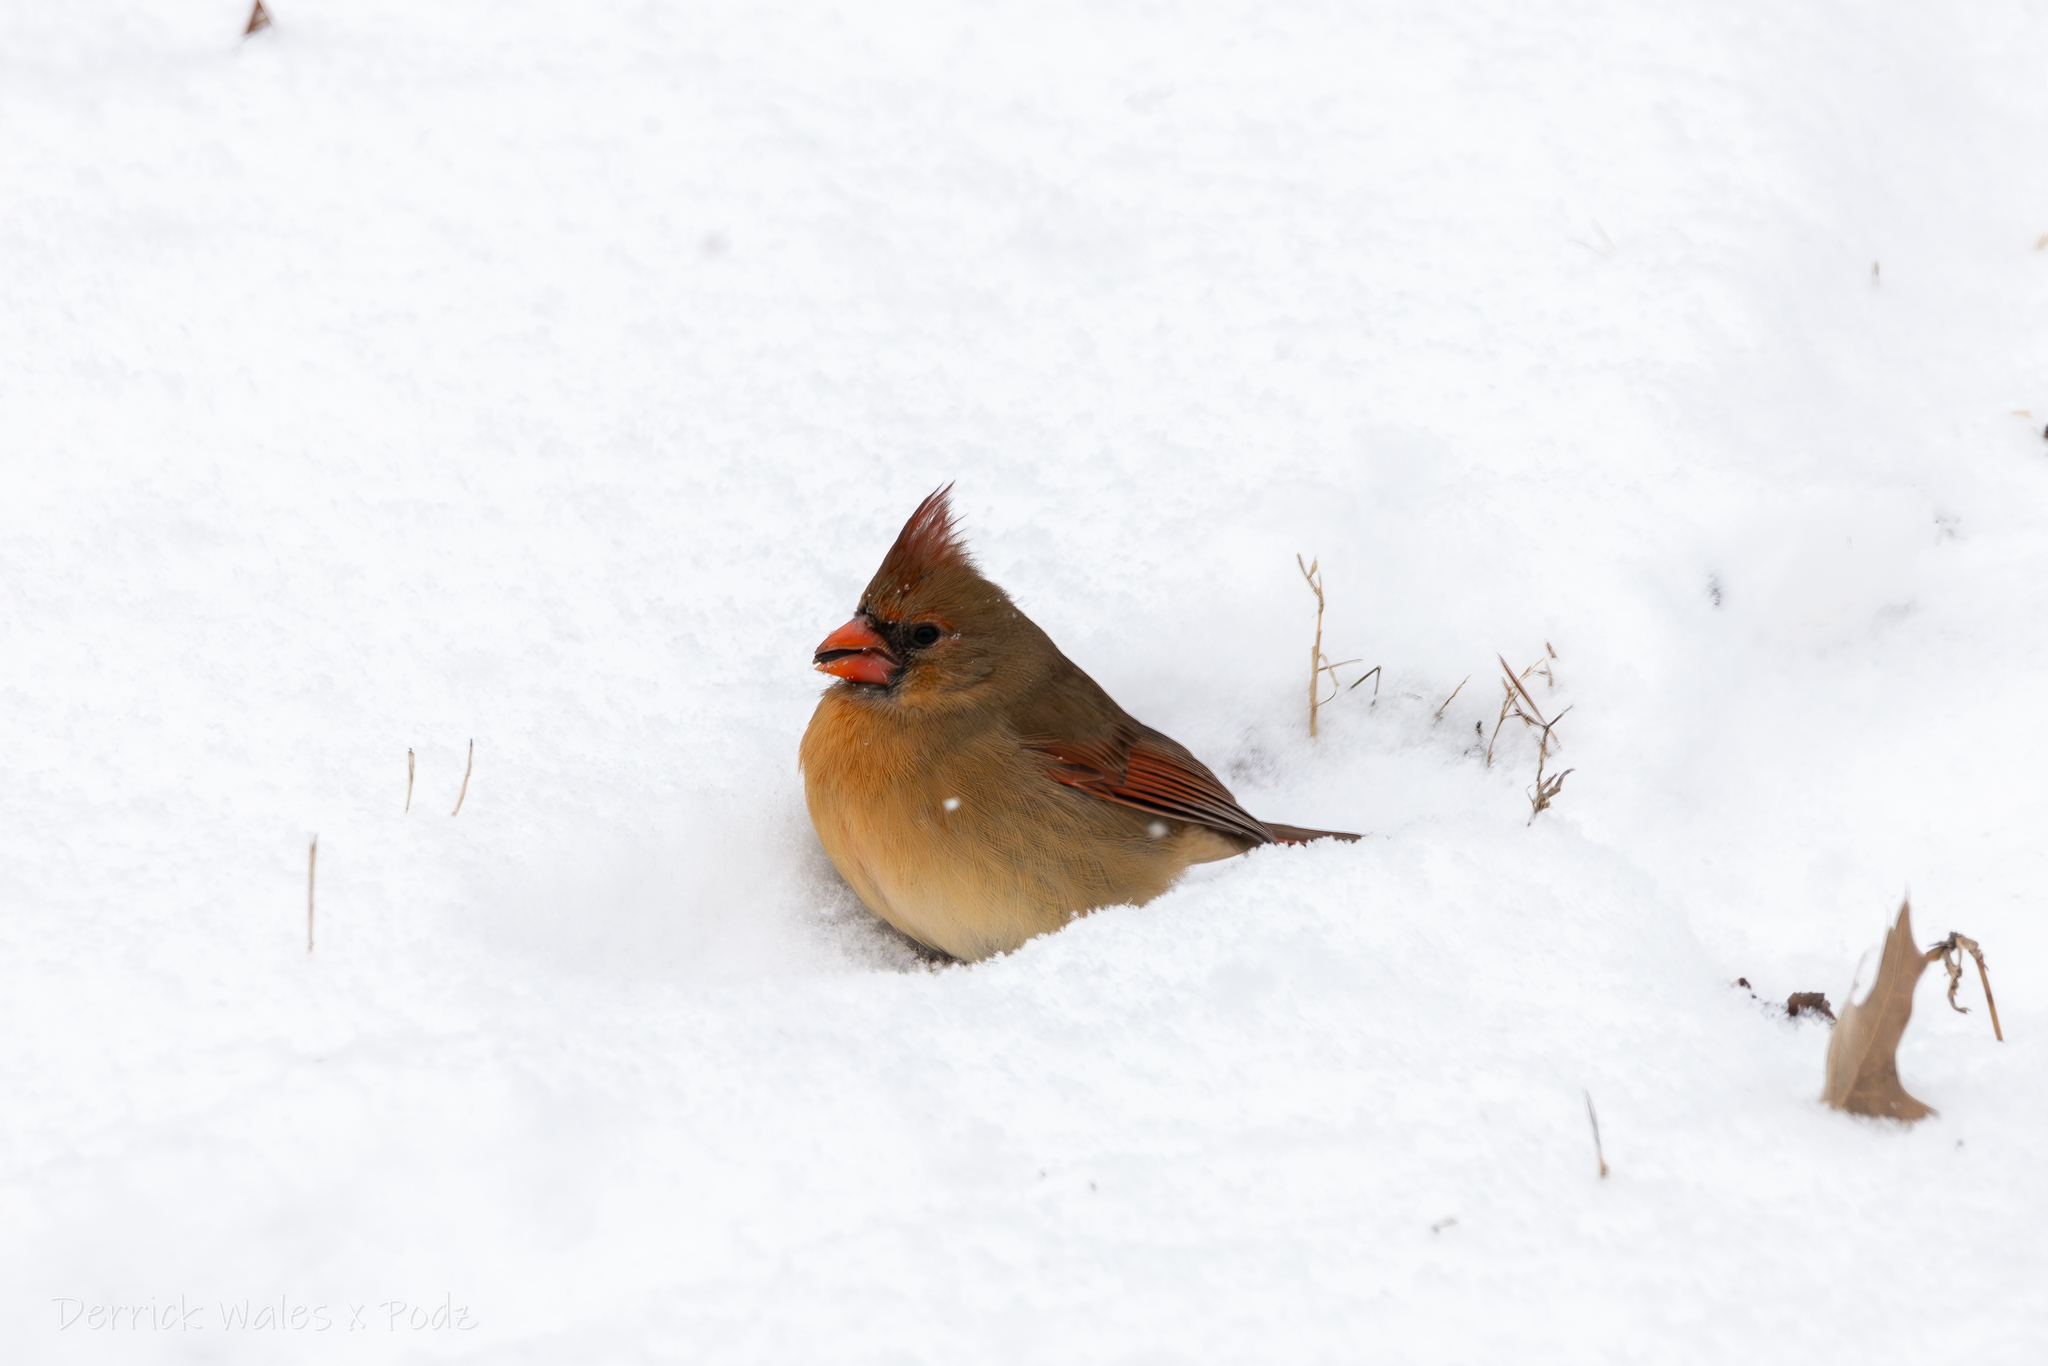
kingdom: Animalia
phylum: Chordata
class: Aves
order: Passeriformes
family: Cardinalidae
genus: Cardinalis
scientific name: Cardinalis cardinalis
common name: Northern cardinal
